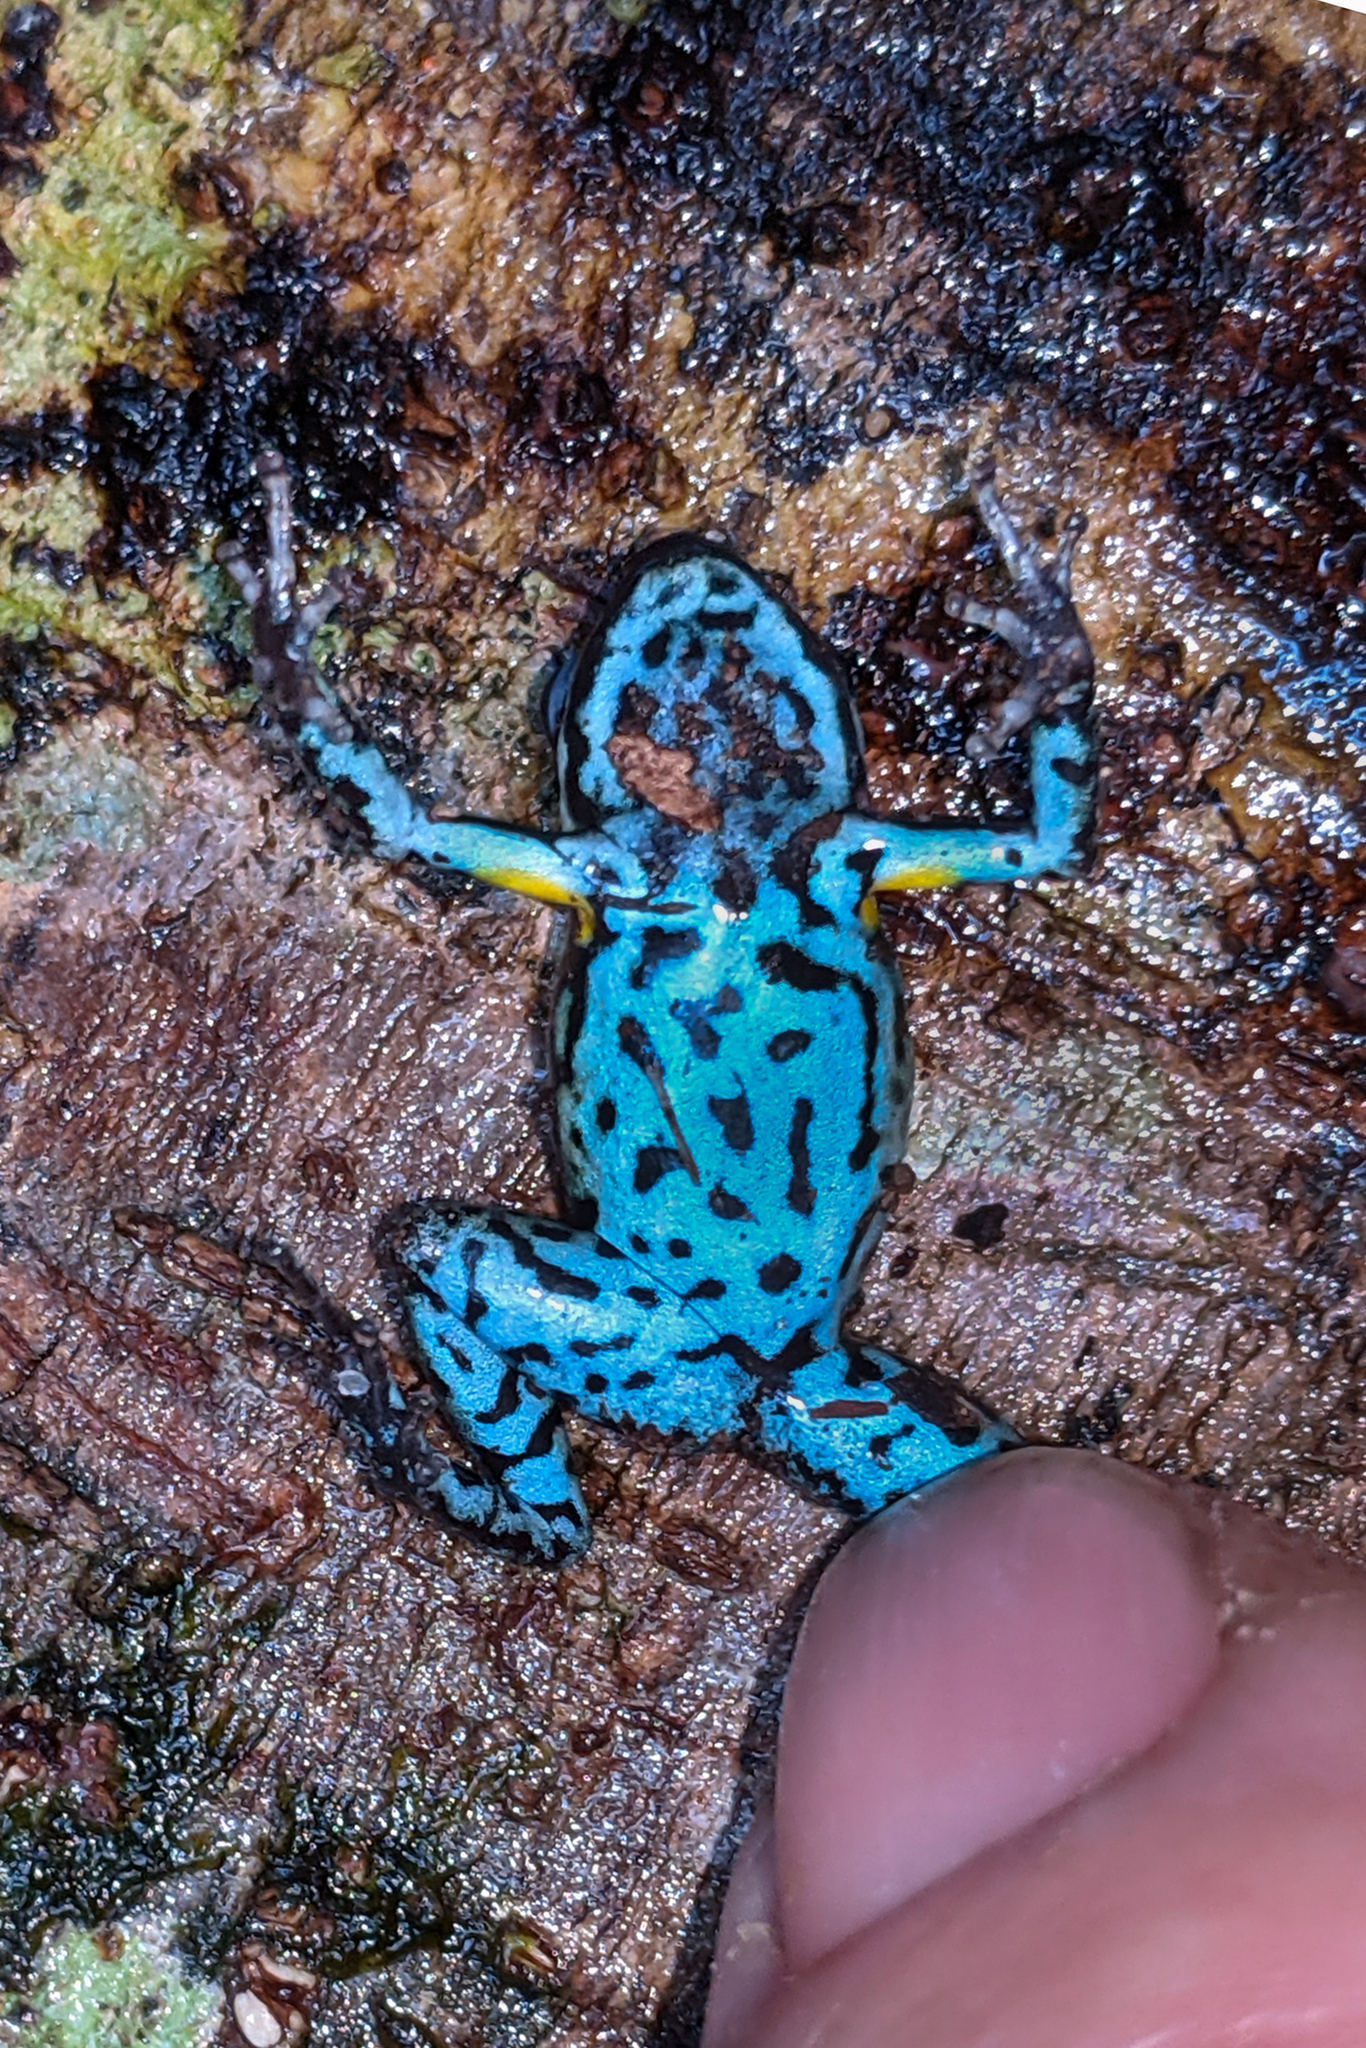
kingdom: Animalia
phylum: Chordata
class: Amphibia
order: Anura
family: Dendrobatidae
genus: Ameerega
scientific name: Ameerega bilinguis
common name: Ecuadorean poison frog
